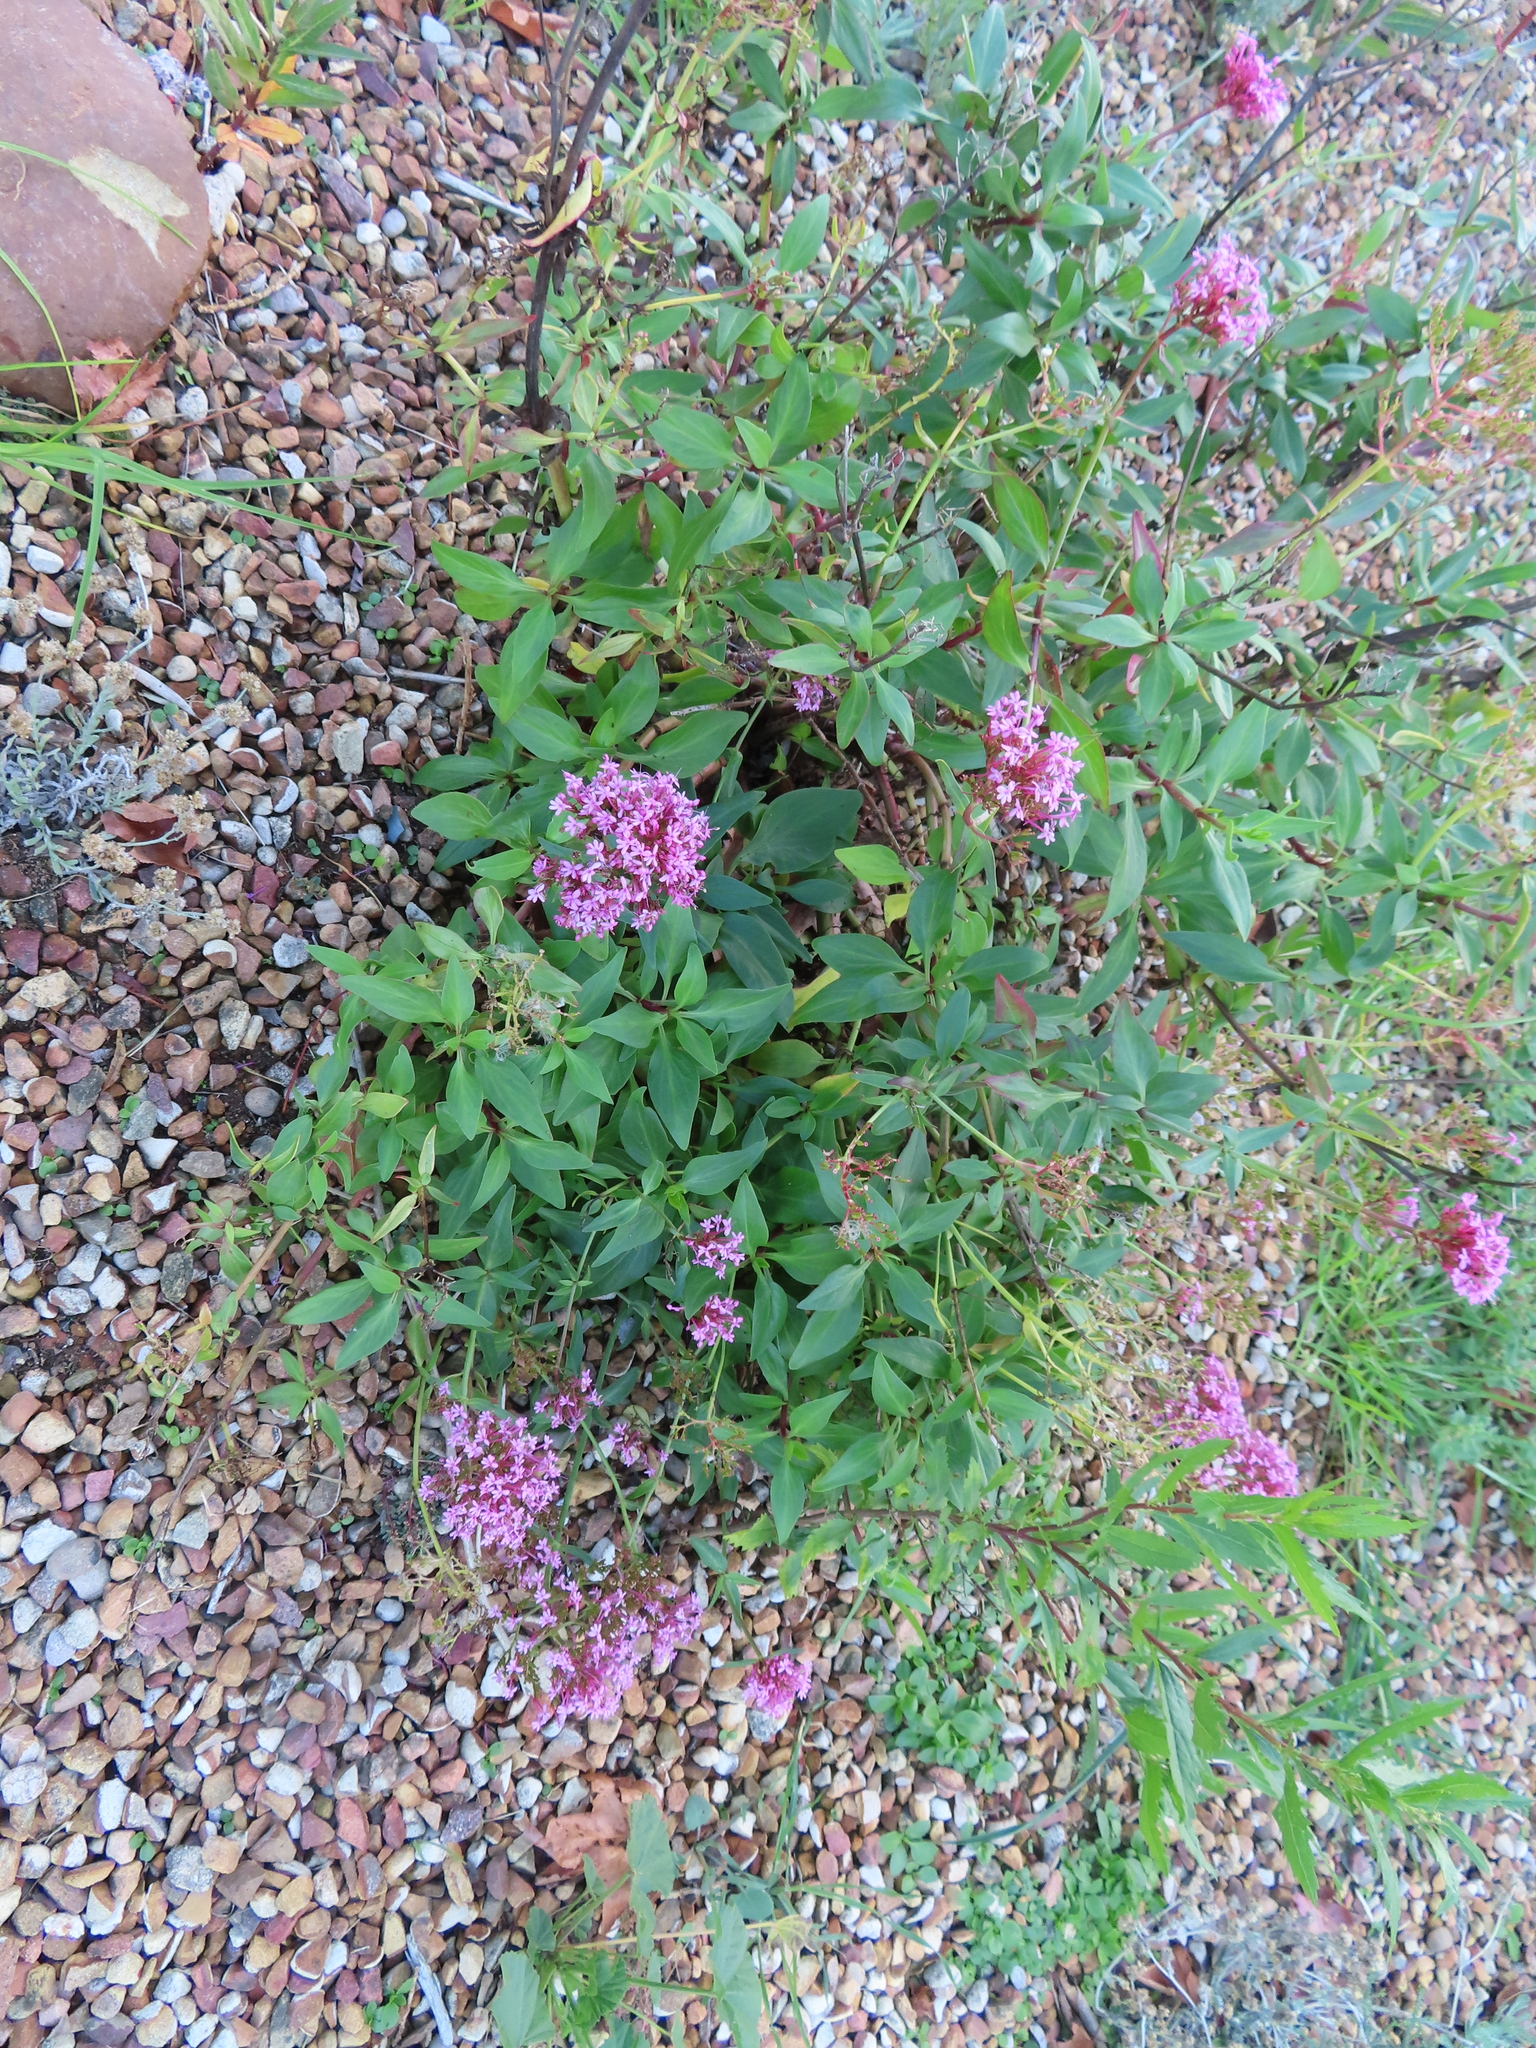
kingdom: Plantae
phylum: Tracheophyta
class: Magnoliopsida
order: Dipsacales
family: Caprifoliaceae
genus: Centranthus
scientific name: Centranthus ruber
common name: Red valerian
